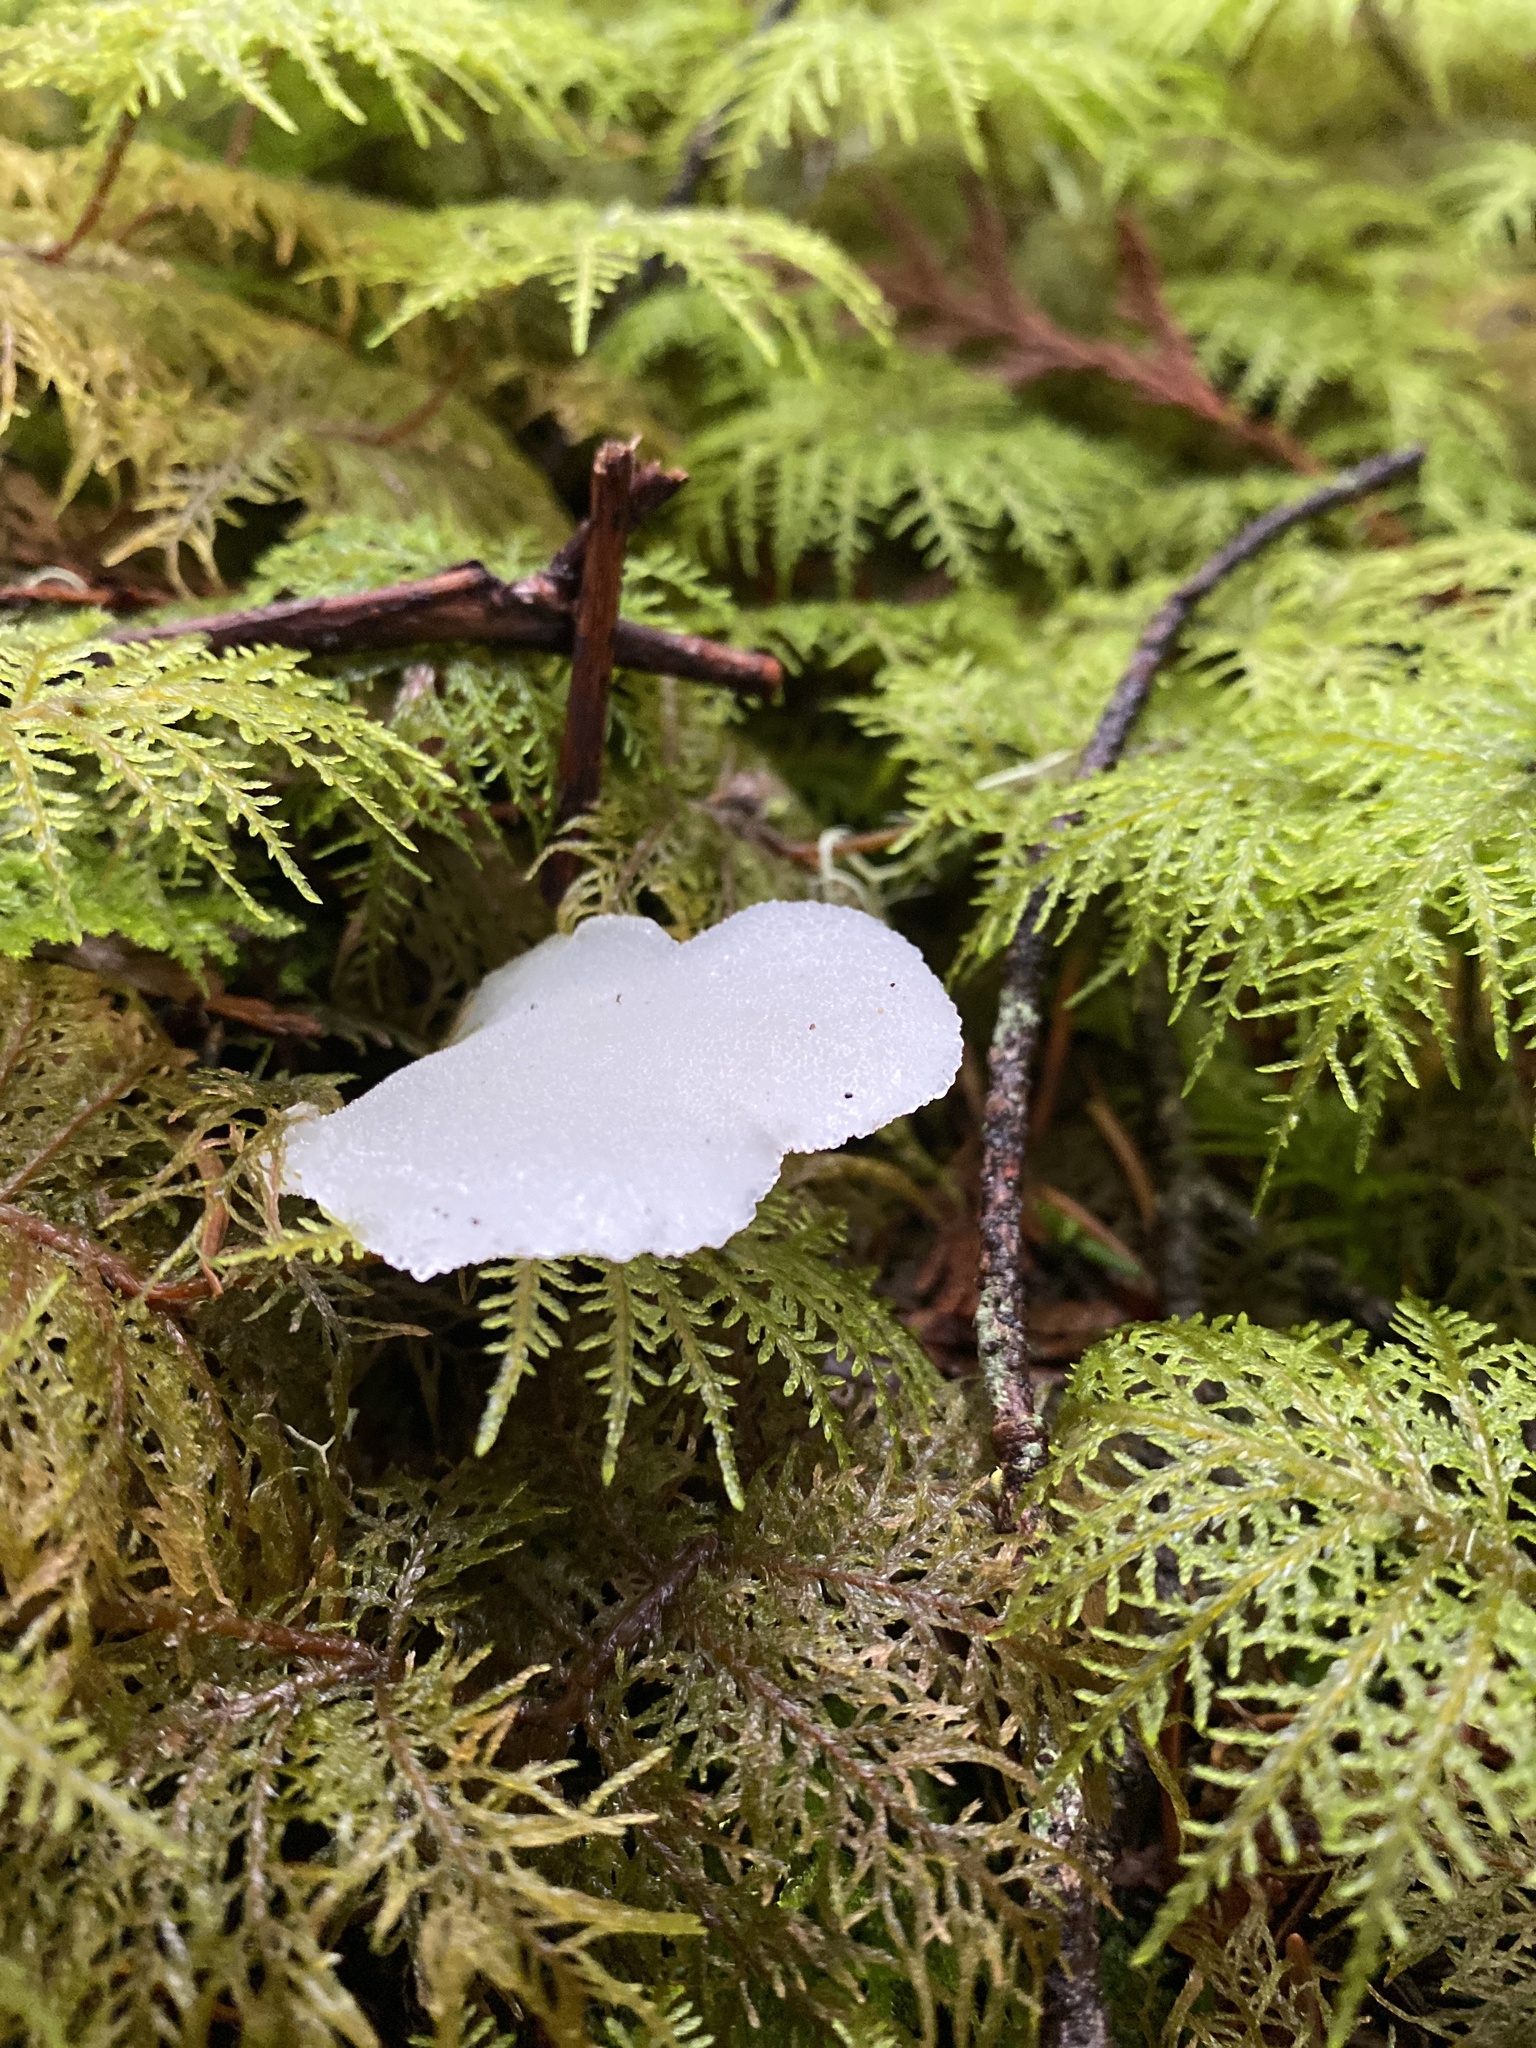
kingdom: Fungi
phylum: Basidiomycota
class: Agaricomycetes
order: Auriculariales
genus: Pseudohydnum
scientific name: Pseudohydnum gelatinosum
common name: Jelly tongue
